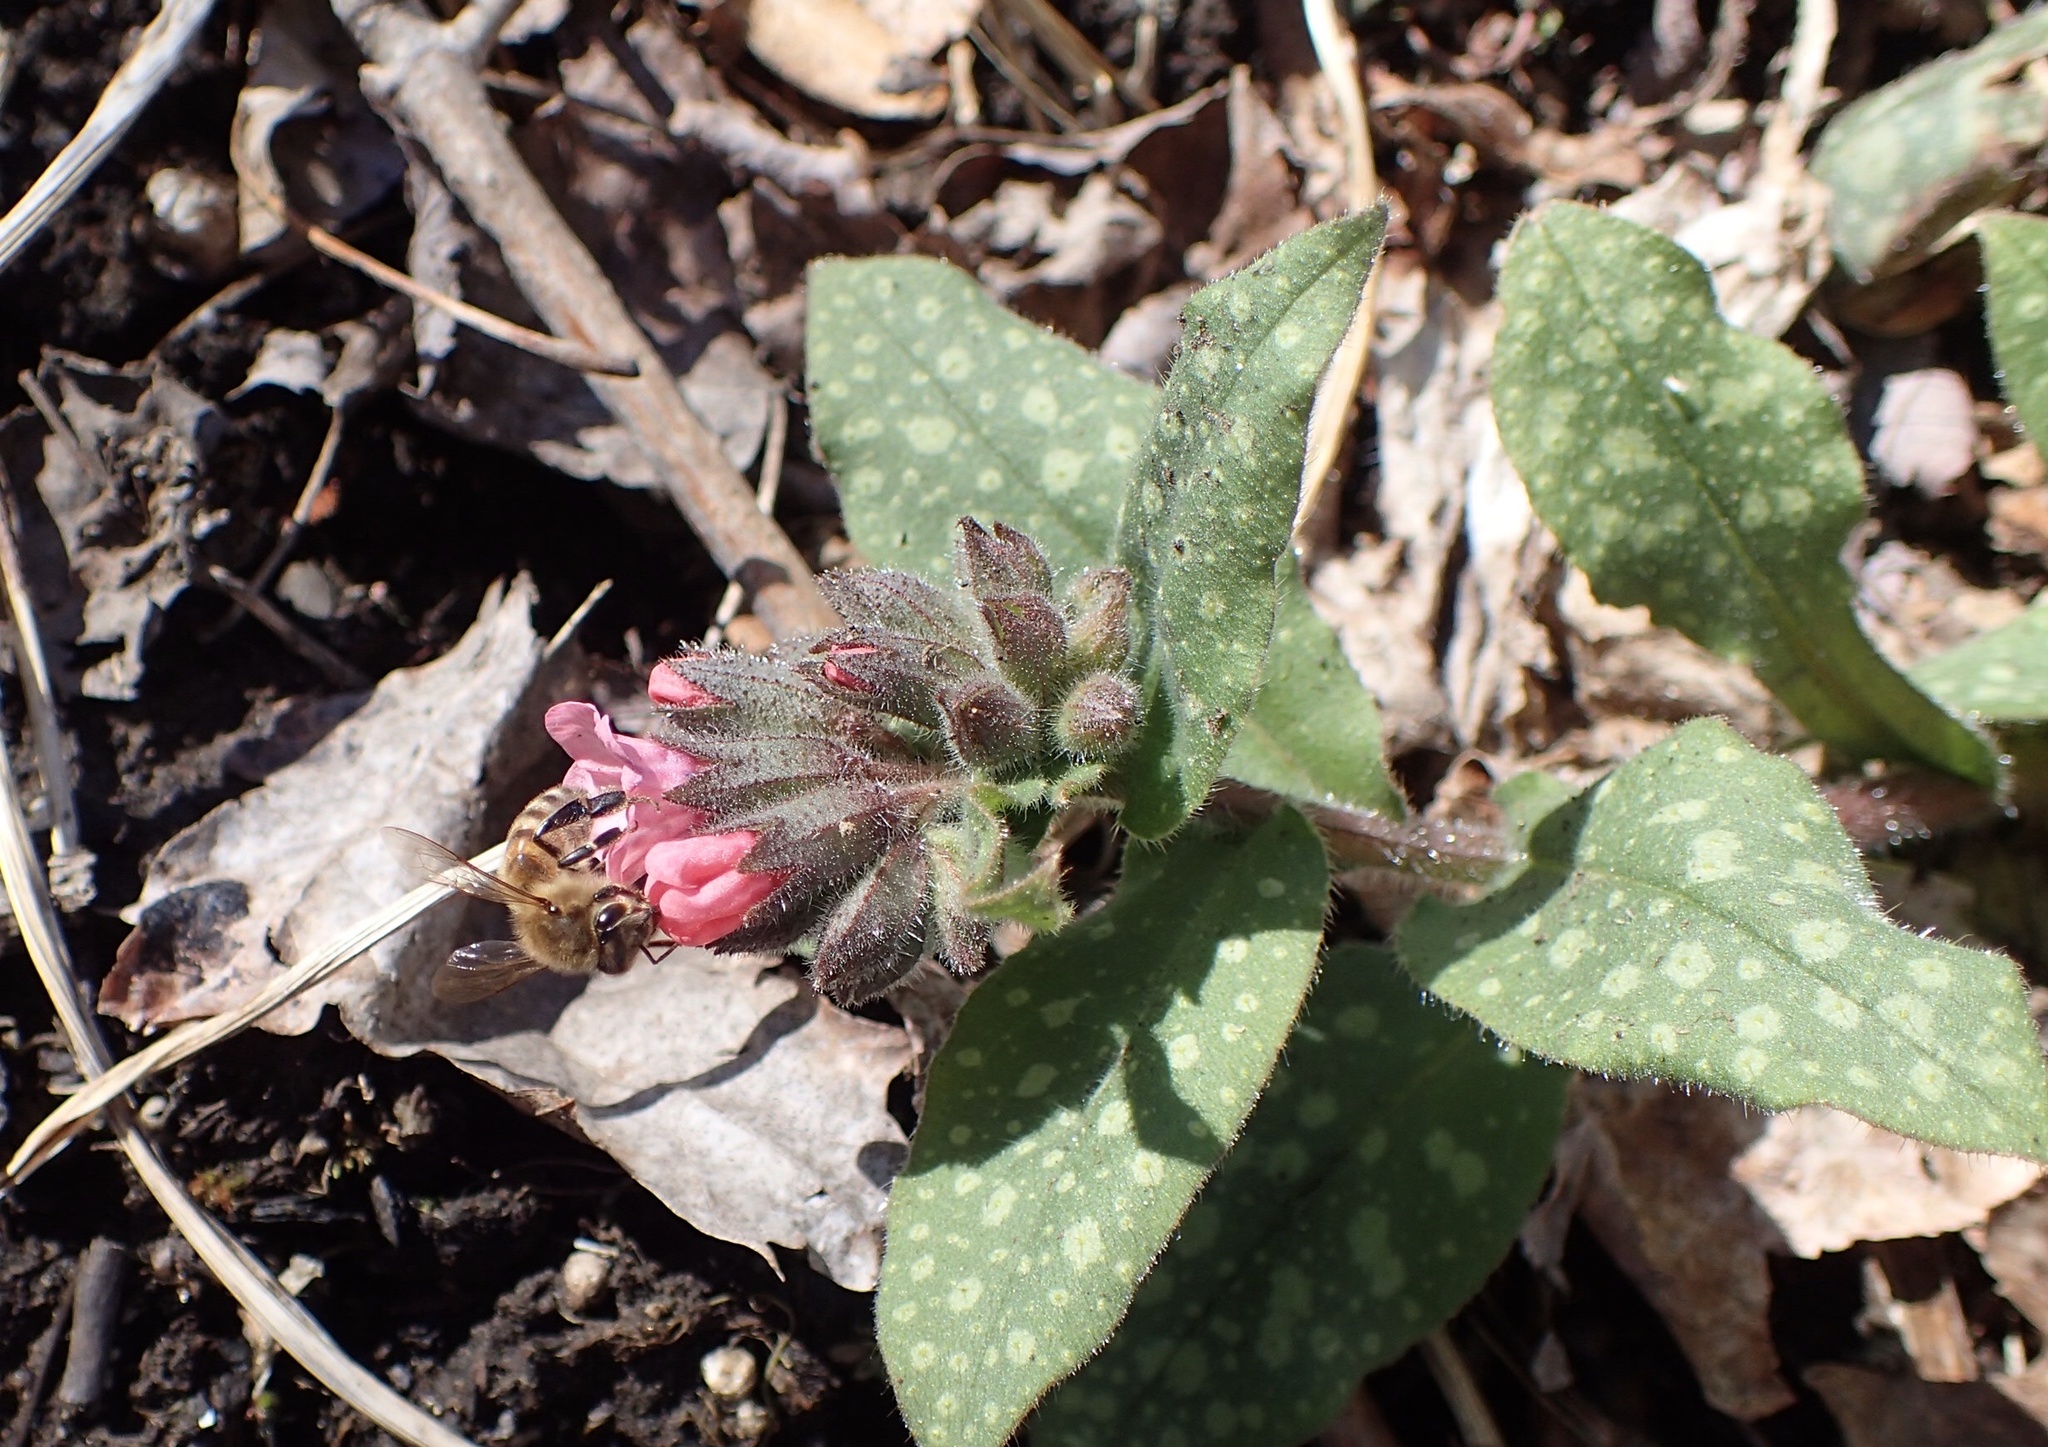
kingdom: Animalia
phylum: Arthropoda
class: Insecta
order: Hymenoptera
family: Apidae
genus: Apis
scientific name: Apis mellifera
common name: Honey bee
